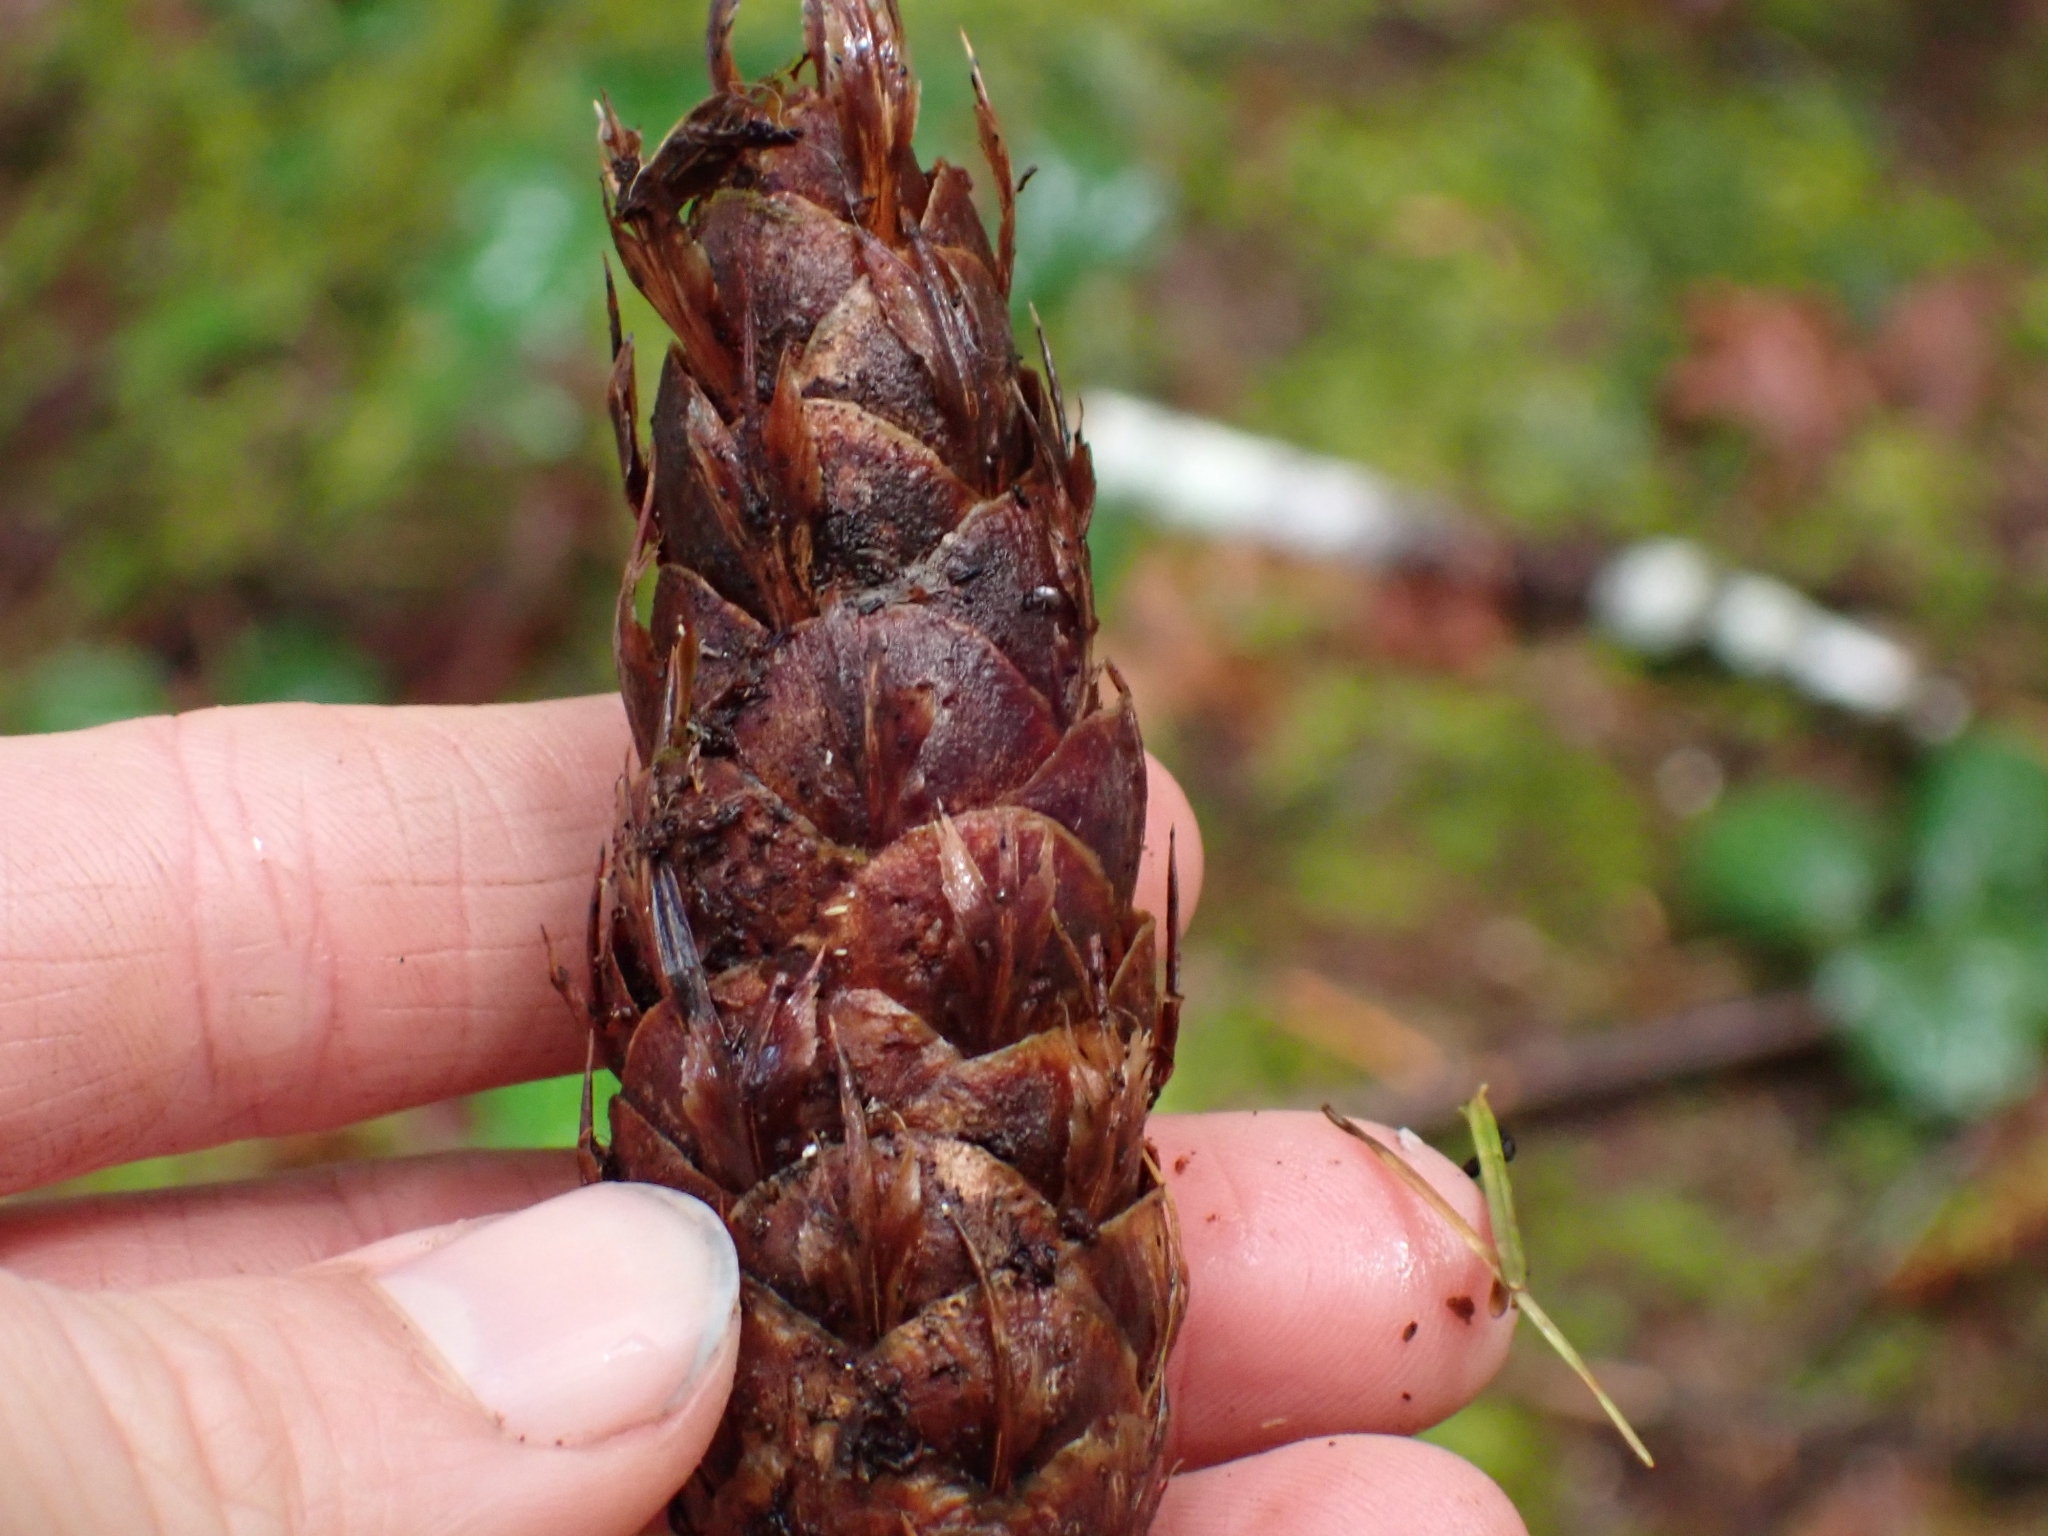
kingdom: Plantae
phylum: Tracheophyta
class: Pinopsida
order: Pinales
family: Pinaceae
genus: Pseudotsuga
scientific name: Pseudotsuga menziesii
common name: Douglas fir
